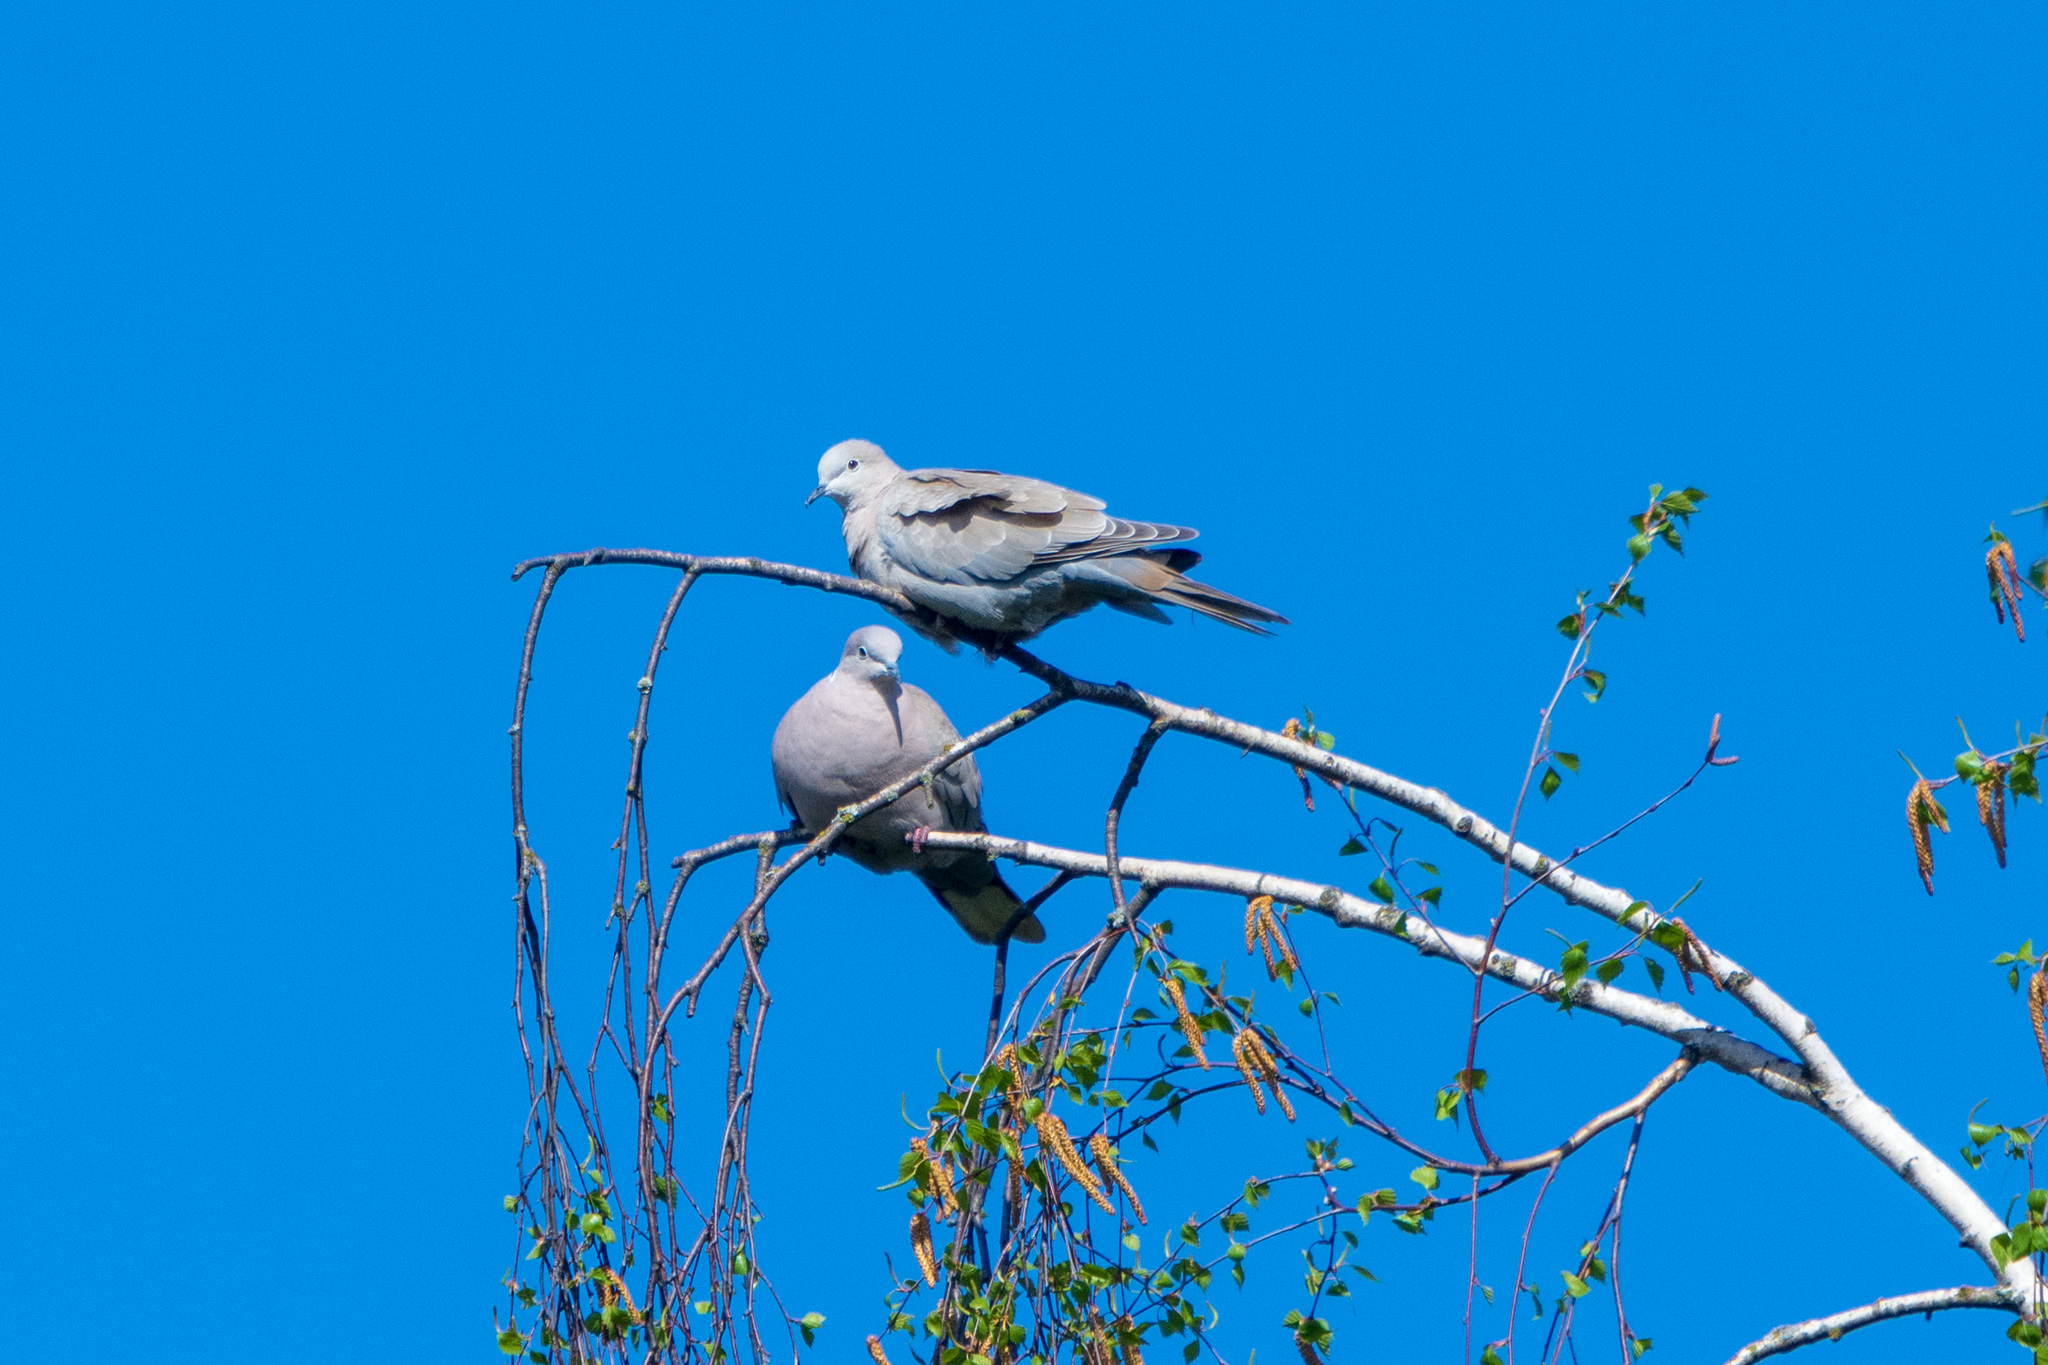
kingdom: Animalia
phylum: Chordata
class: Aves
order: Columbiformes
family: Columbidae
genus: Streptopelia
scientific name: Streptopelia decaocto
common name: Eurasian collared dove
